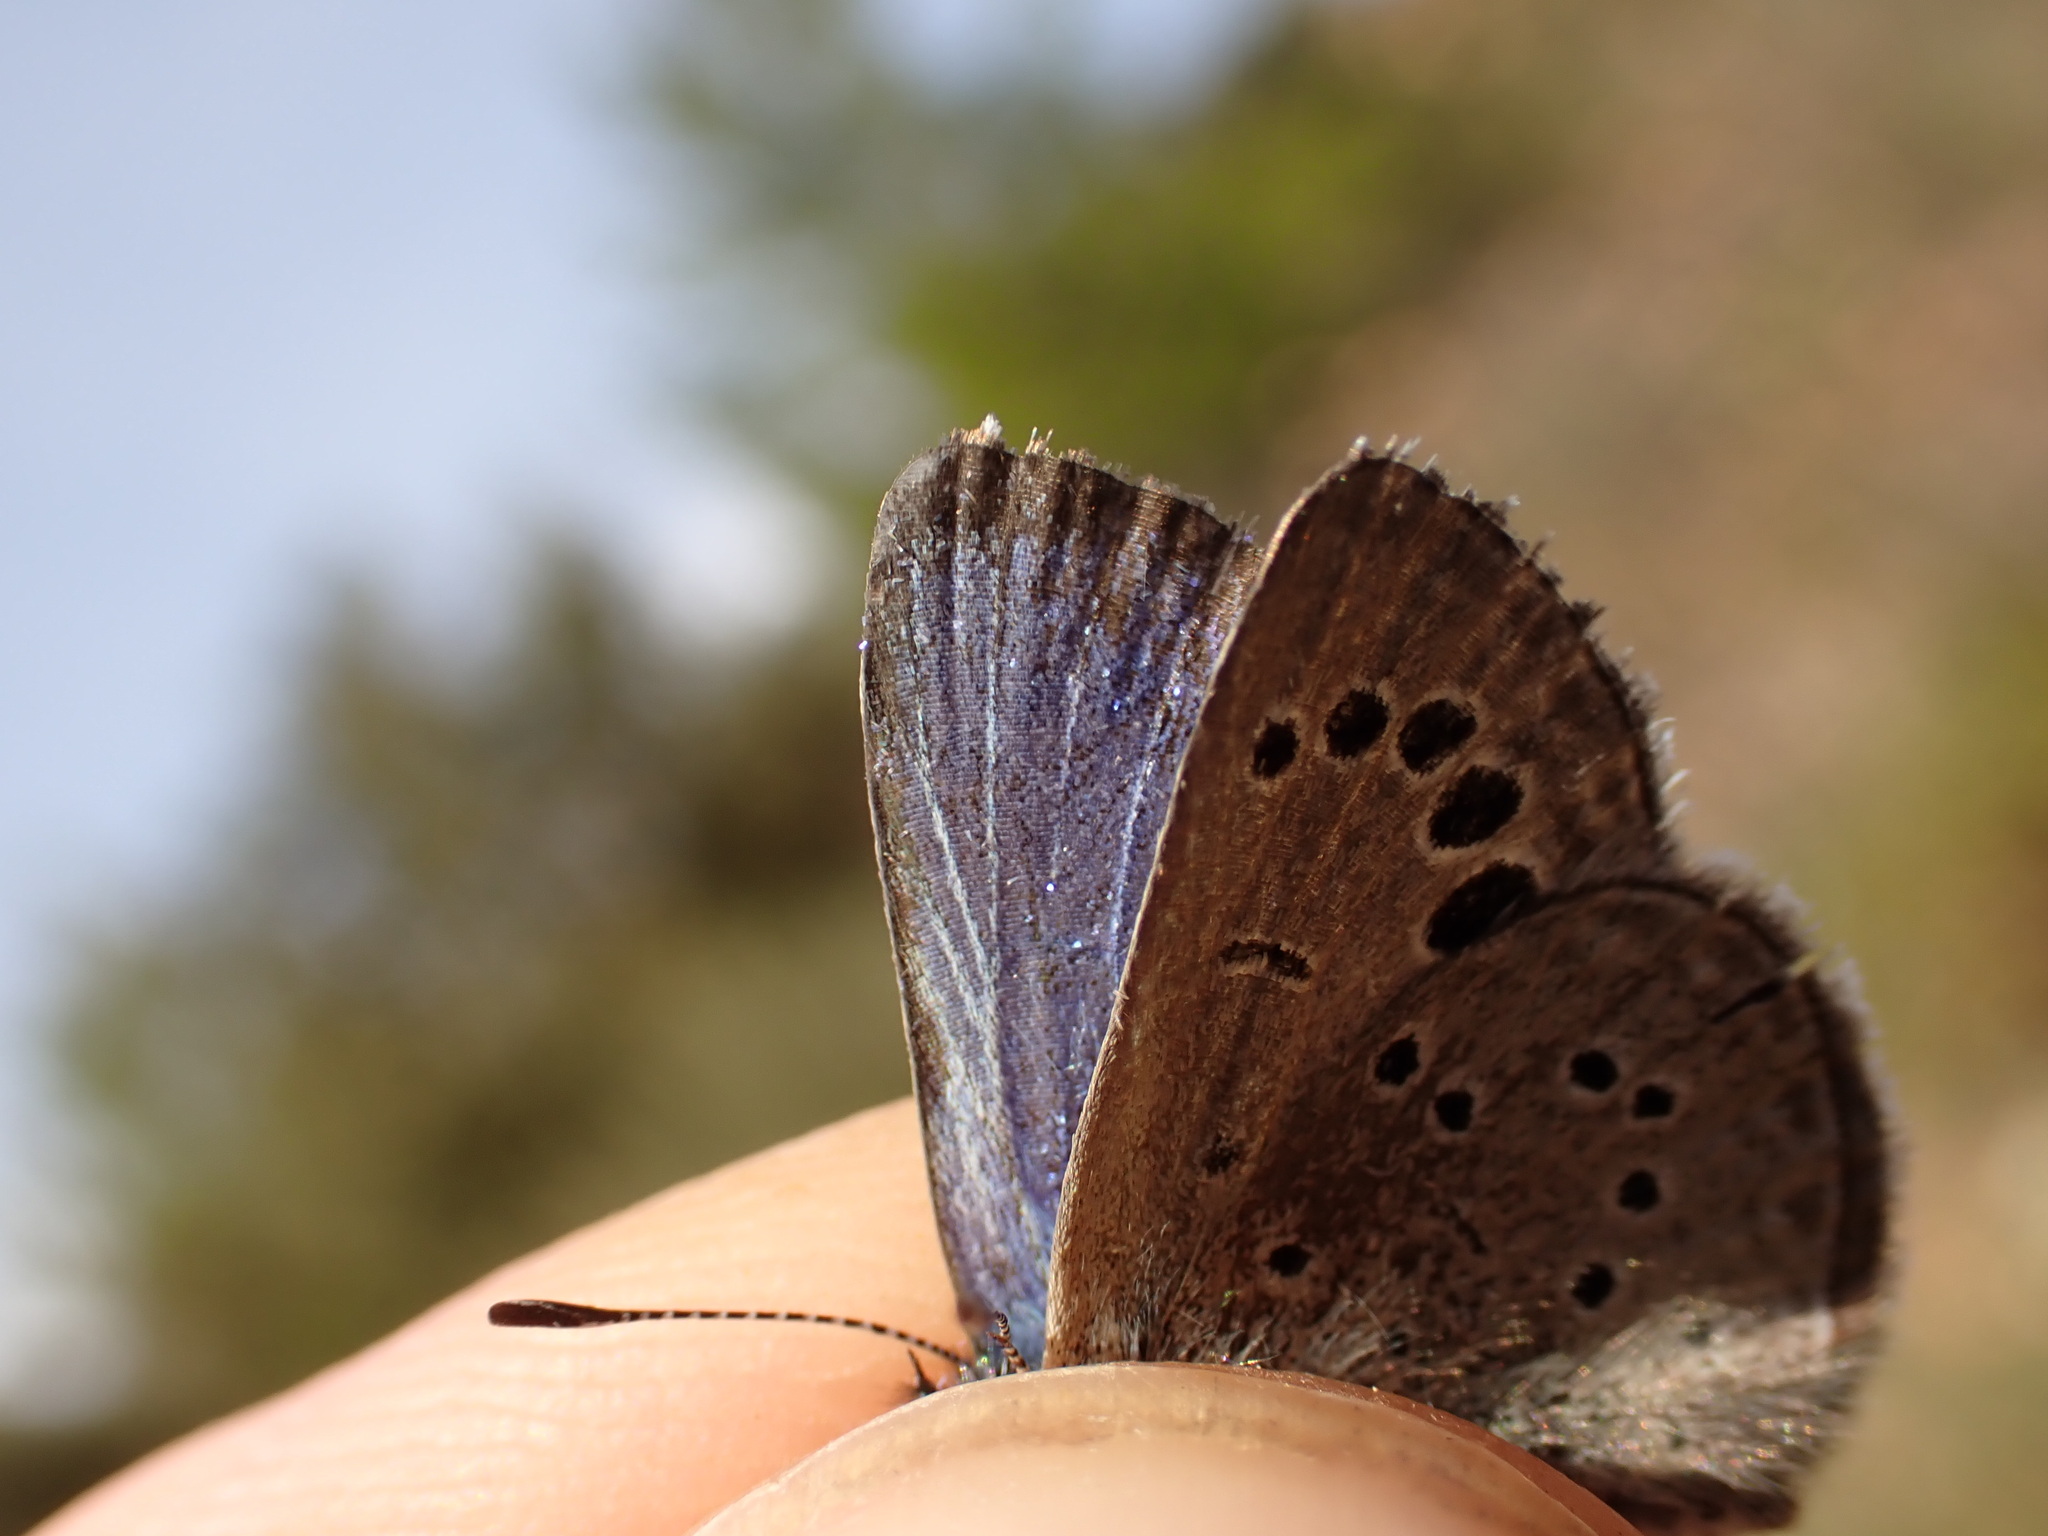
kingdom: Animalia
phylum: Arthropoda
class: Insecta
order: Lepidoptera
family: Lycaenidae
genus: Glaucopsyche
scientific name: Glaucopsyche melanops
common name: Black-eyed blue
